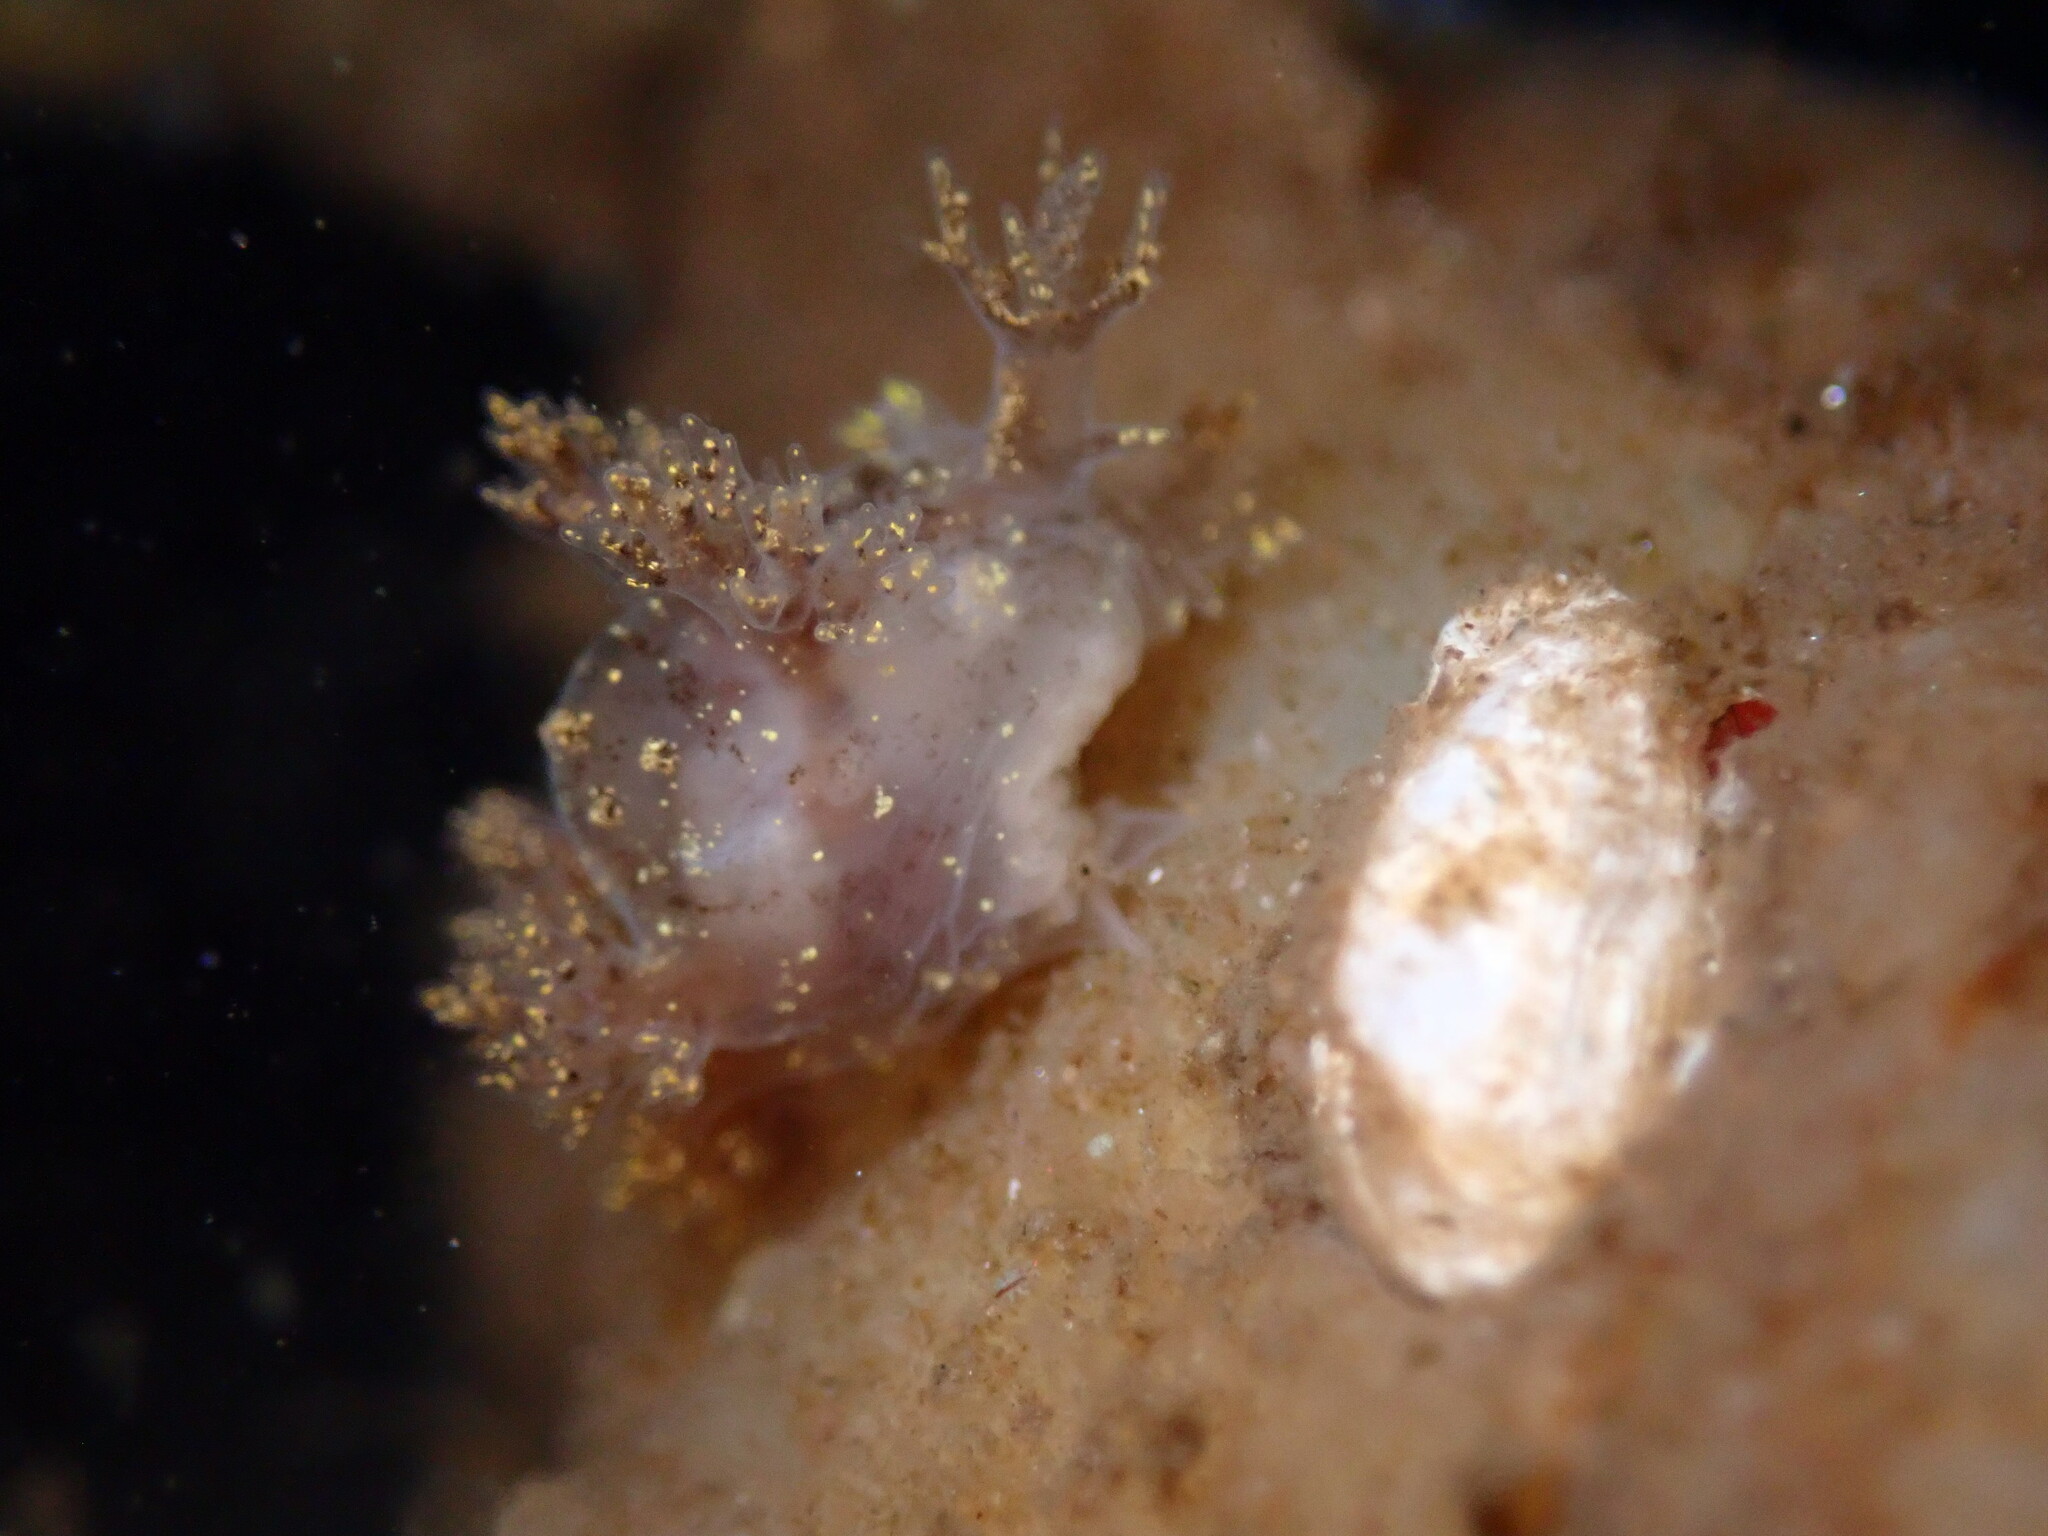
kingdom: Animalia
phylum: Mollusca
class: Gastropoda
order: Nudibranchia
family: Dendronotidae
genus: Dendronotus
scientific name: Dendronotus venustus
